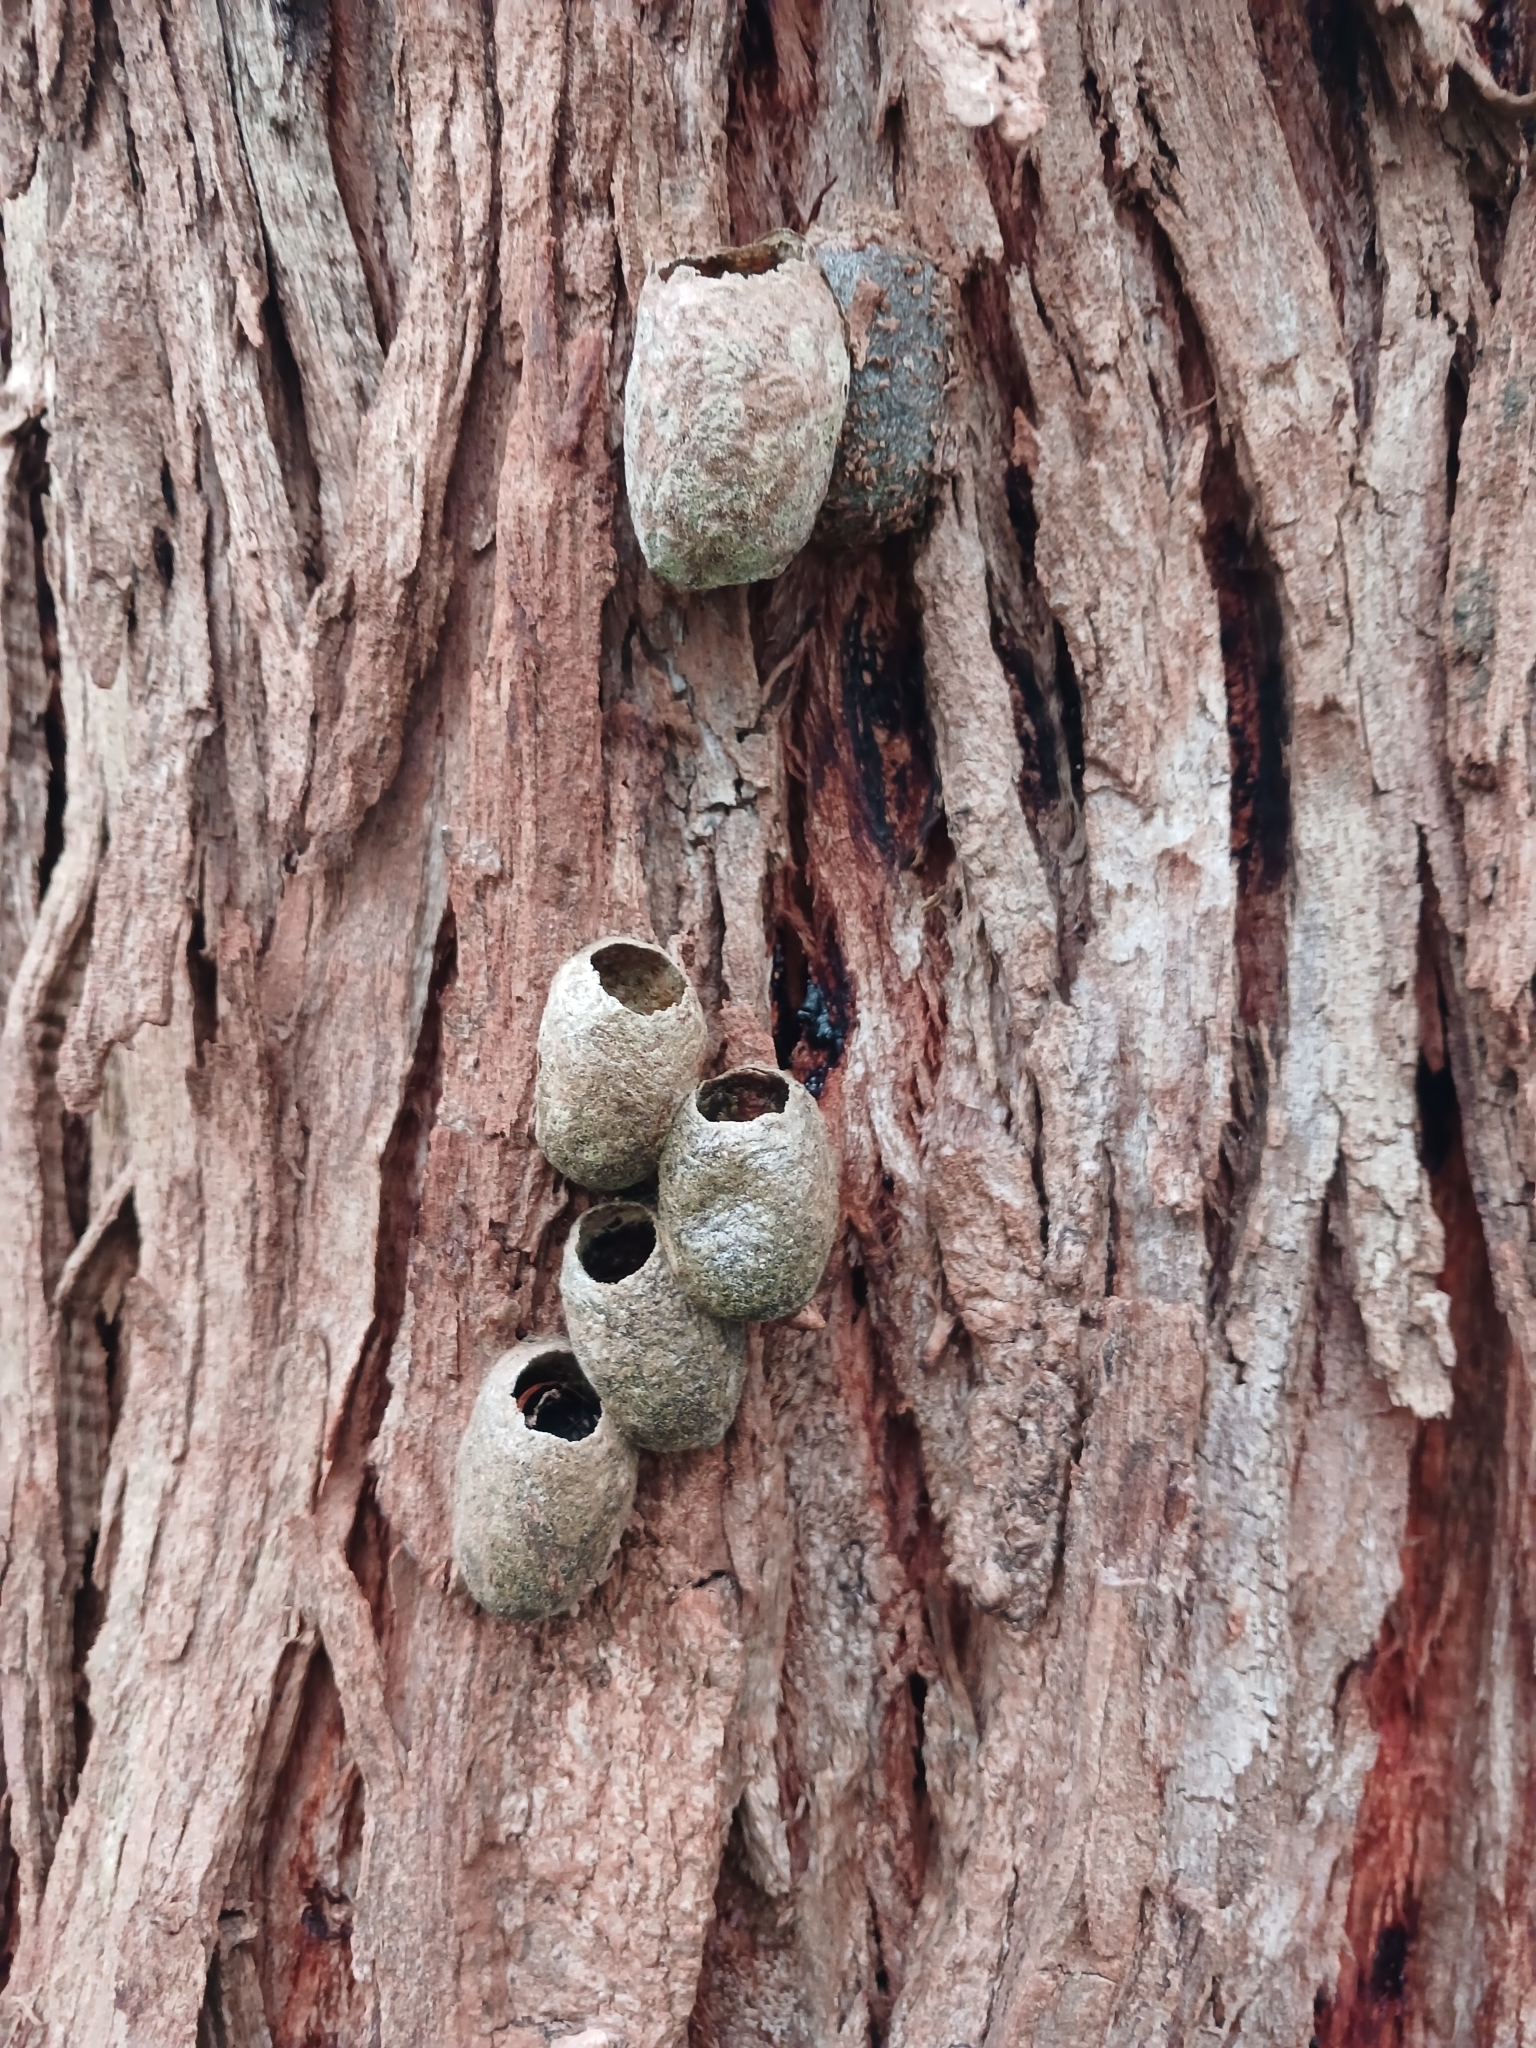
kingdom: Animalia
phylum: Arthropoda
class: Insecta
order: Lepidoptera
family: Saturniidae
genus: Opodiphthera
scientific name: Opodiphthera
